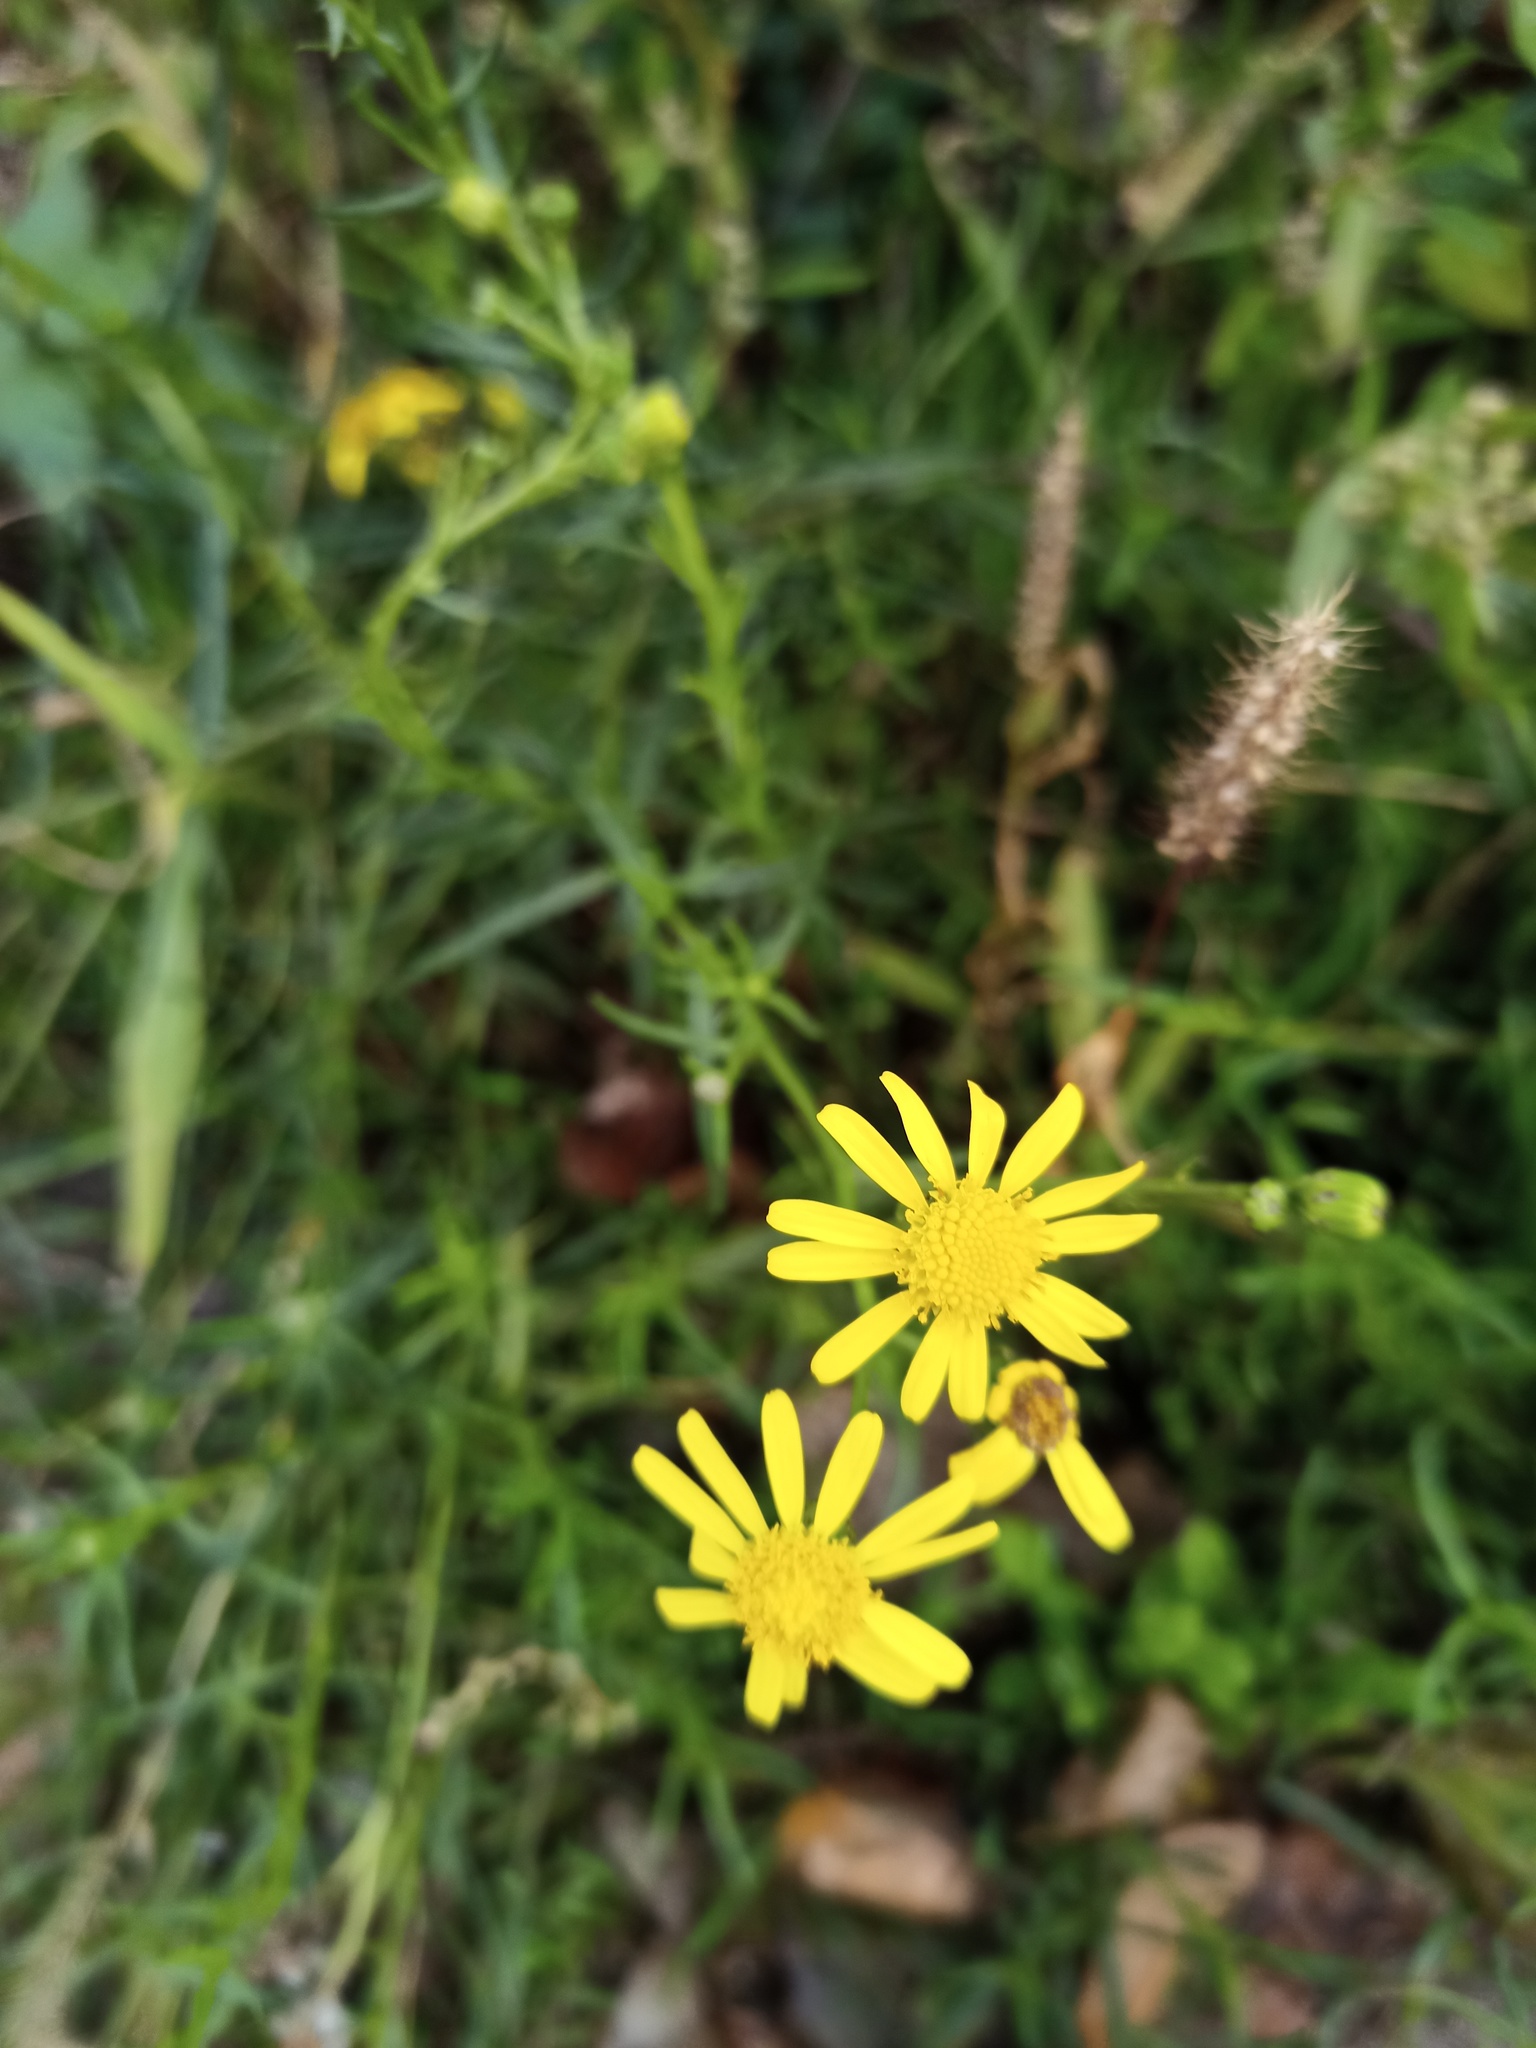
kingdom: Plantae
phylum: Tracheophyta
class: Magnoliopsida
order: Asterales
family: Asteraceae
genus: Senecio
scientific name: Senecio inaequidens
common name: Narrow-leaved ragwort
